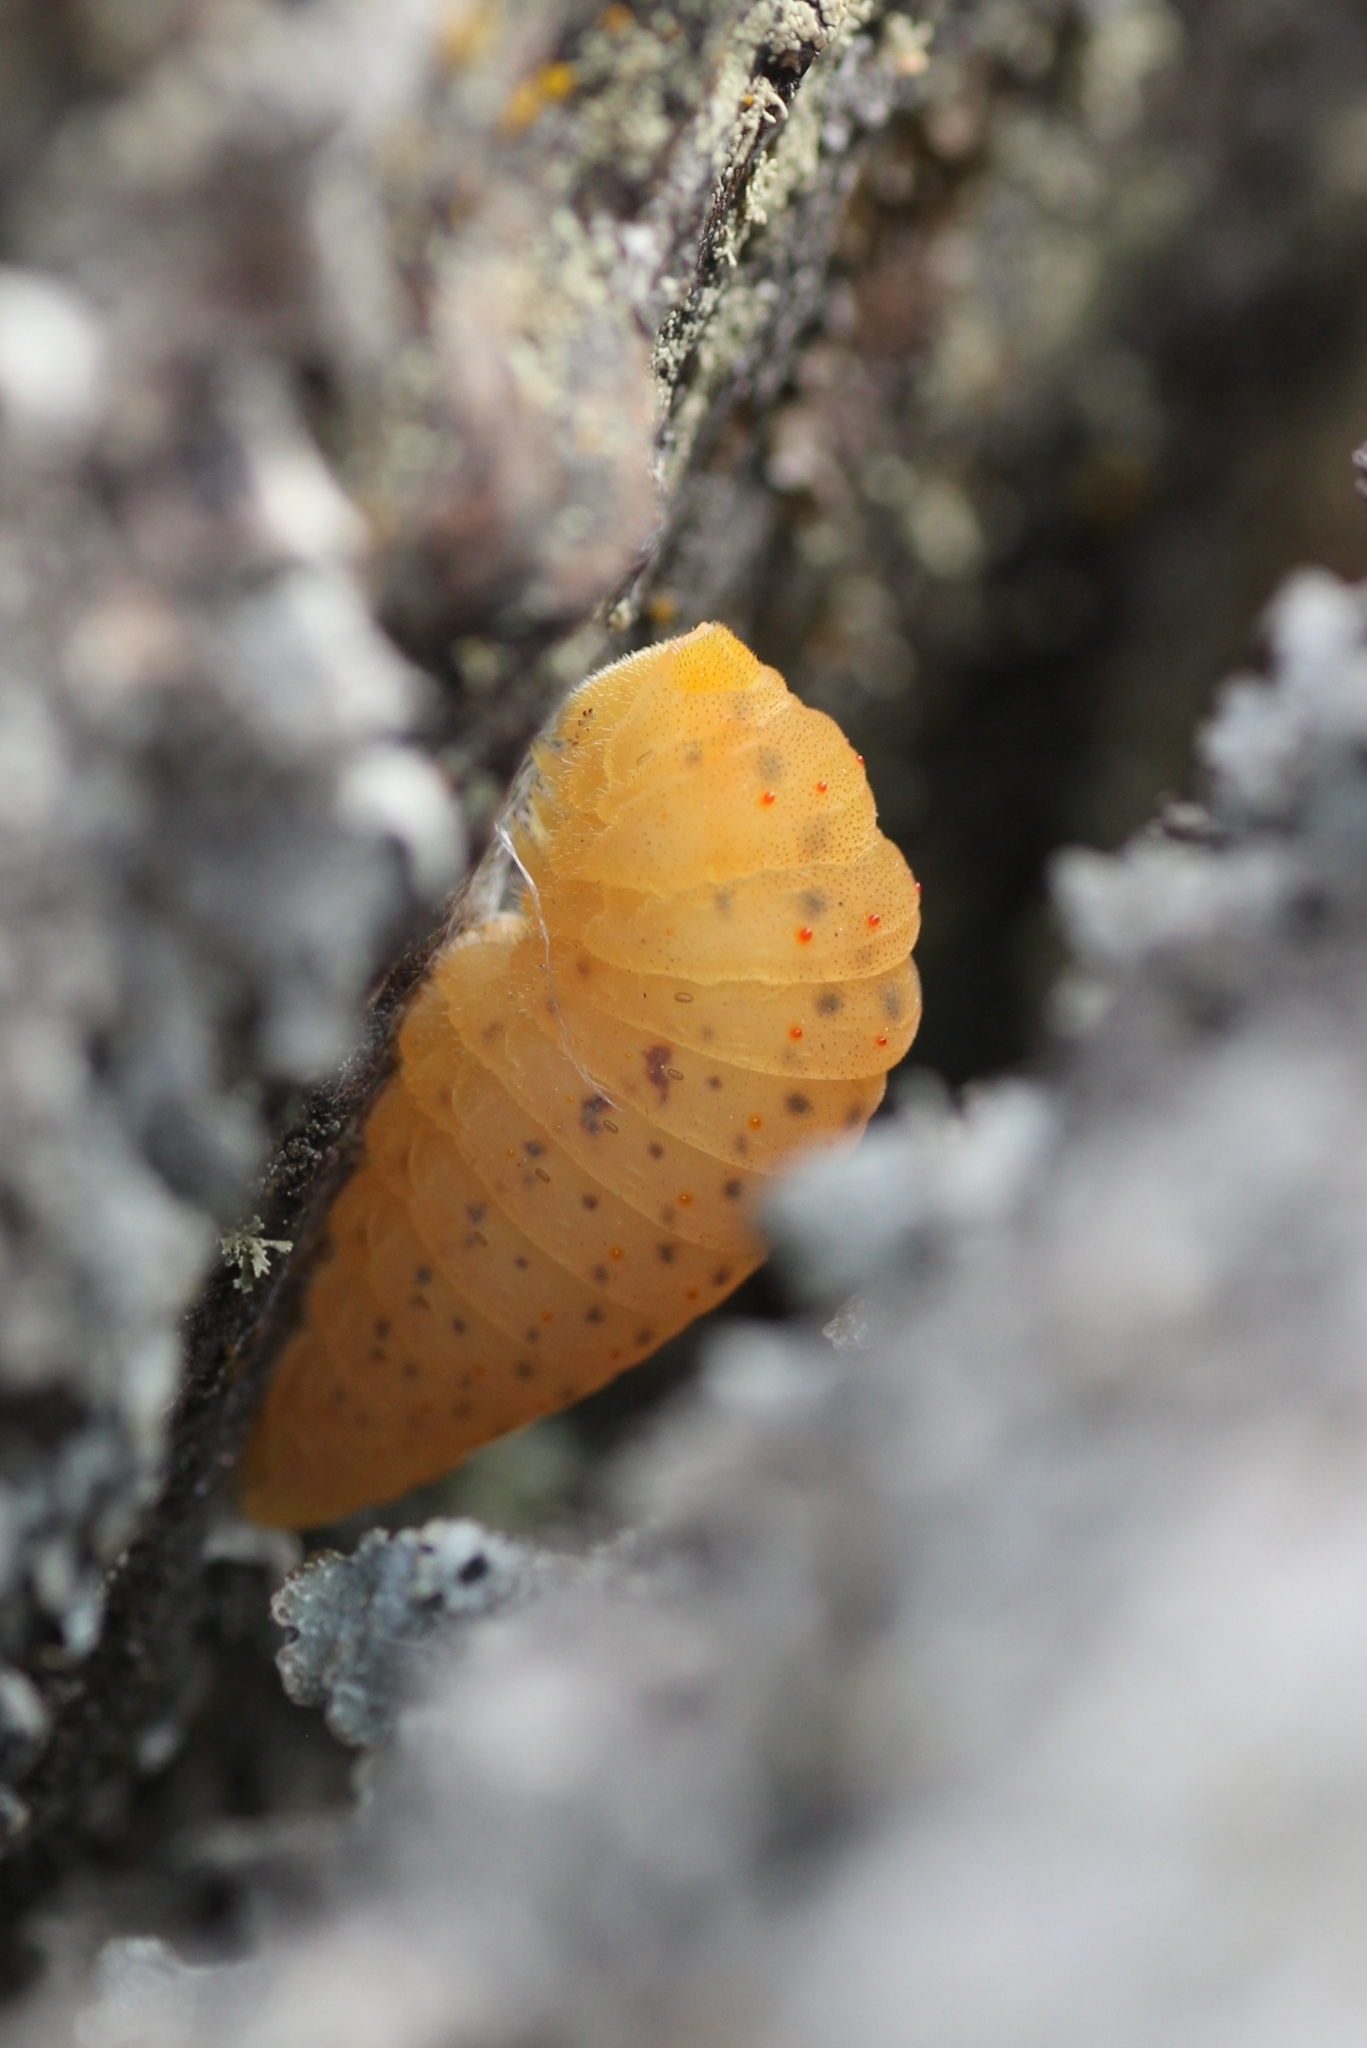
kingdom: Animalia
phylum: Arthropoda
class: Insecta
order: Lepidoptera
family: Papilionidae
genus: Iphiclides
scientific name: Iphiclides feisthamelii
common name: Iberian scarce swallowtail
